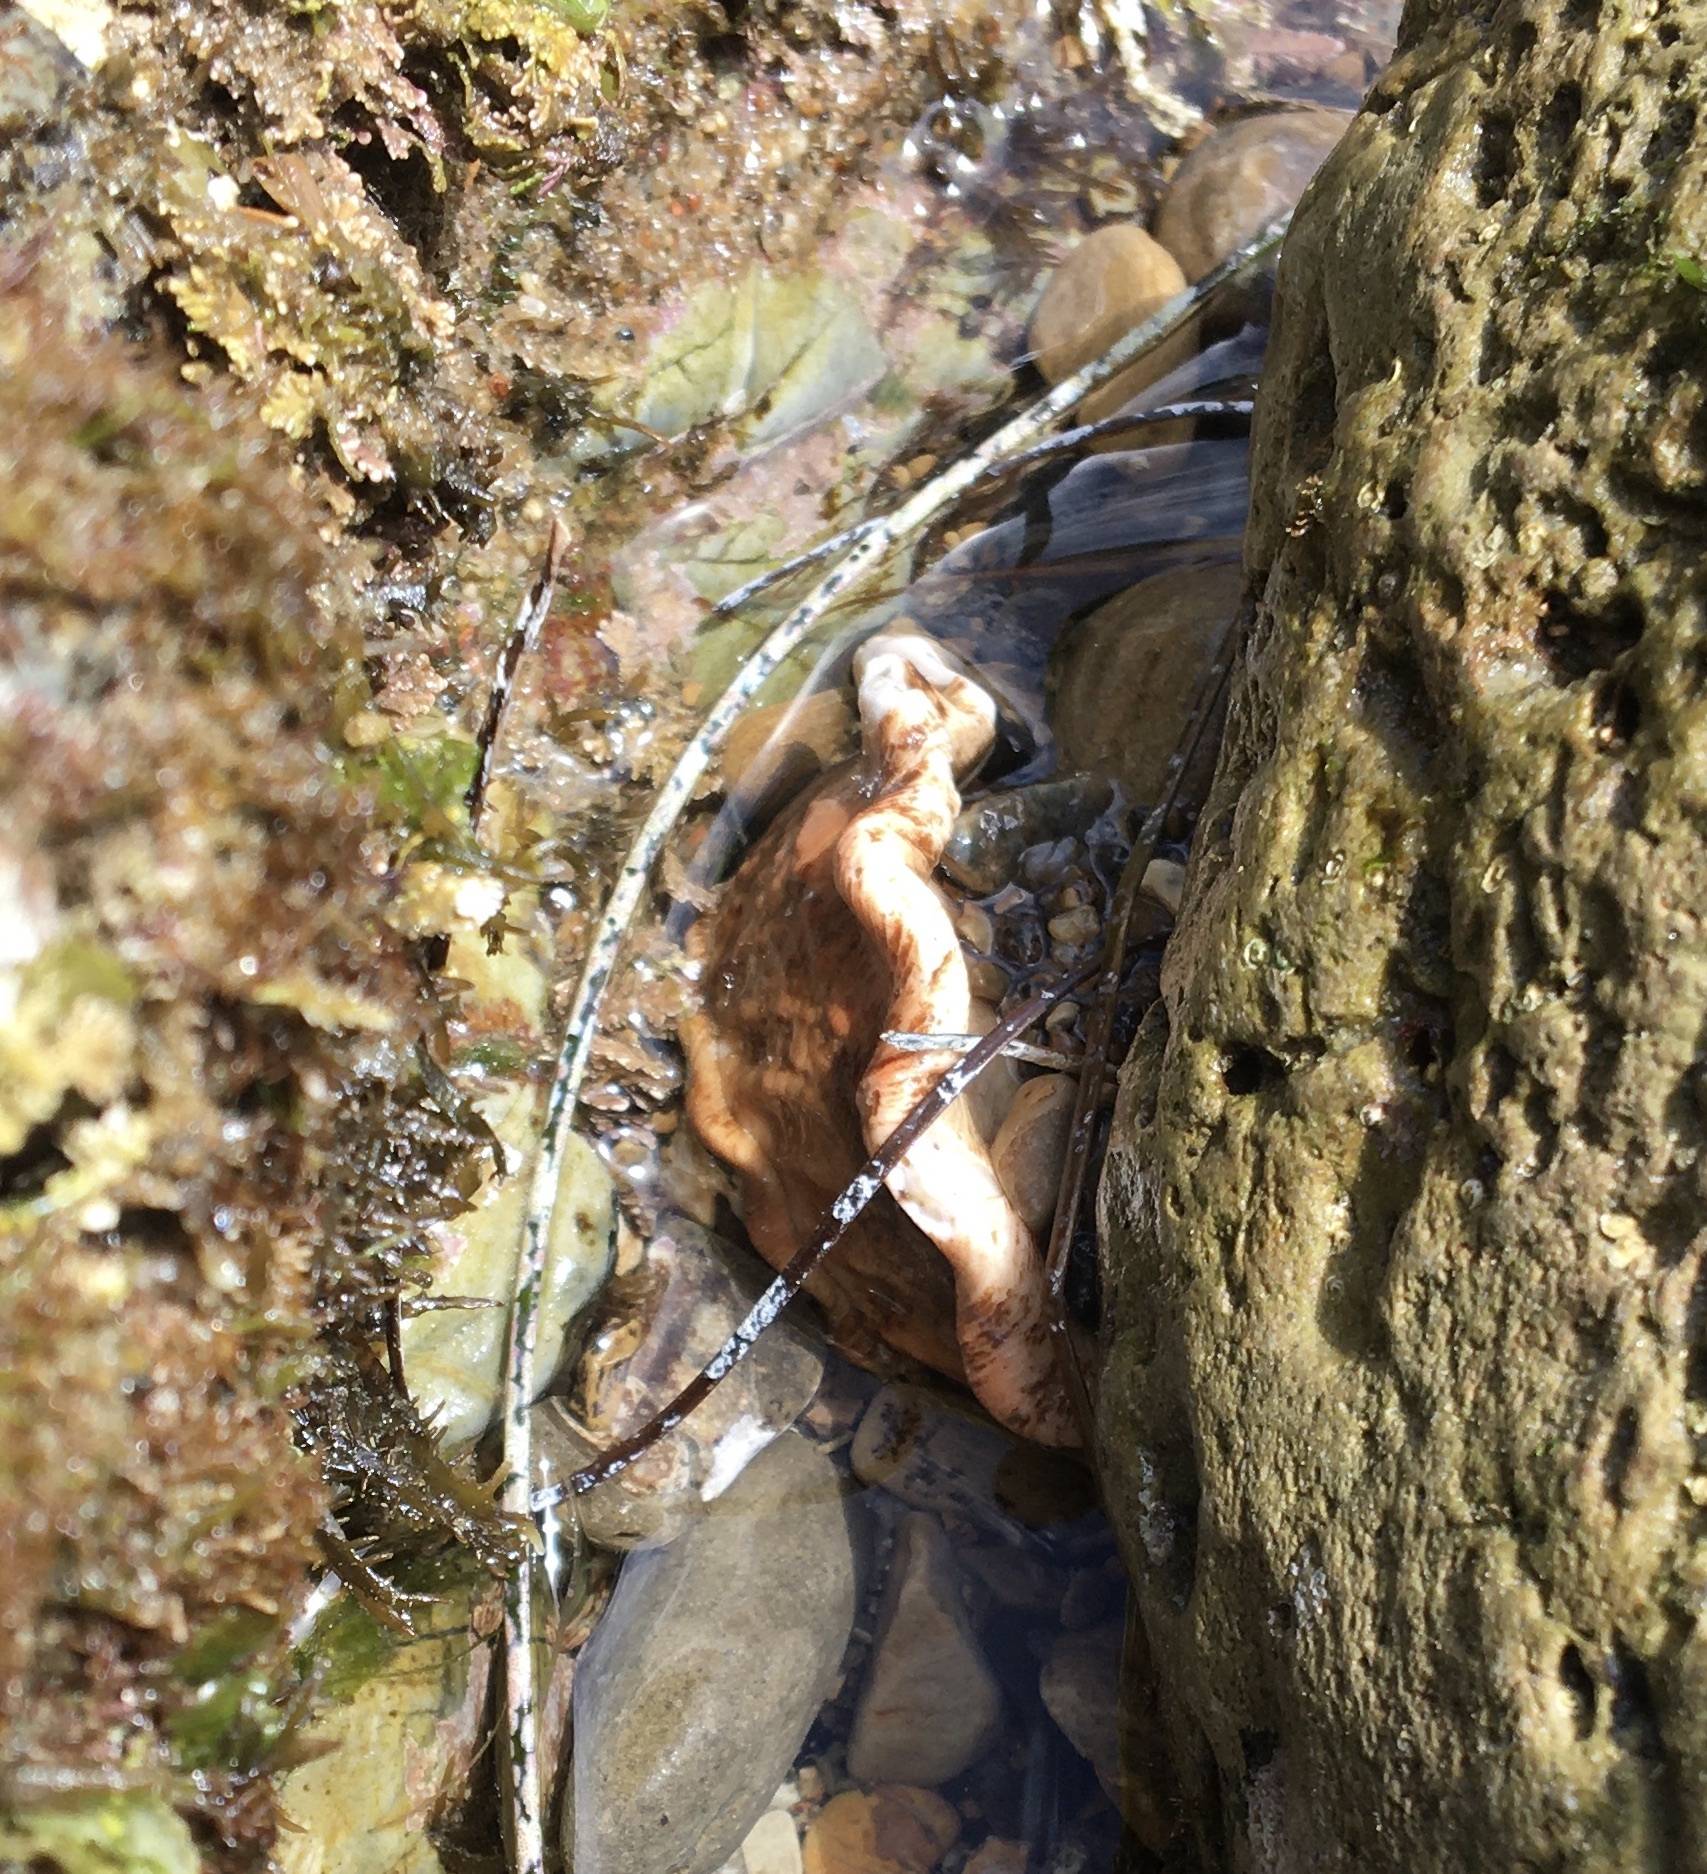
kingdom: Animalia
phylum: Mollusca
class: Gastropoda
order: Trochida
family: Turbinidae
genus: Megastraea
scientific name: Megastraea undosa
